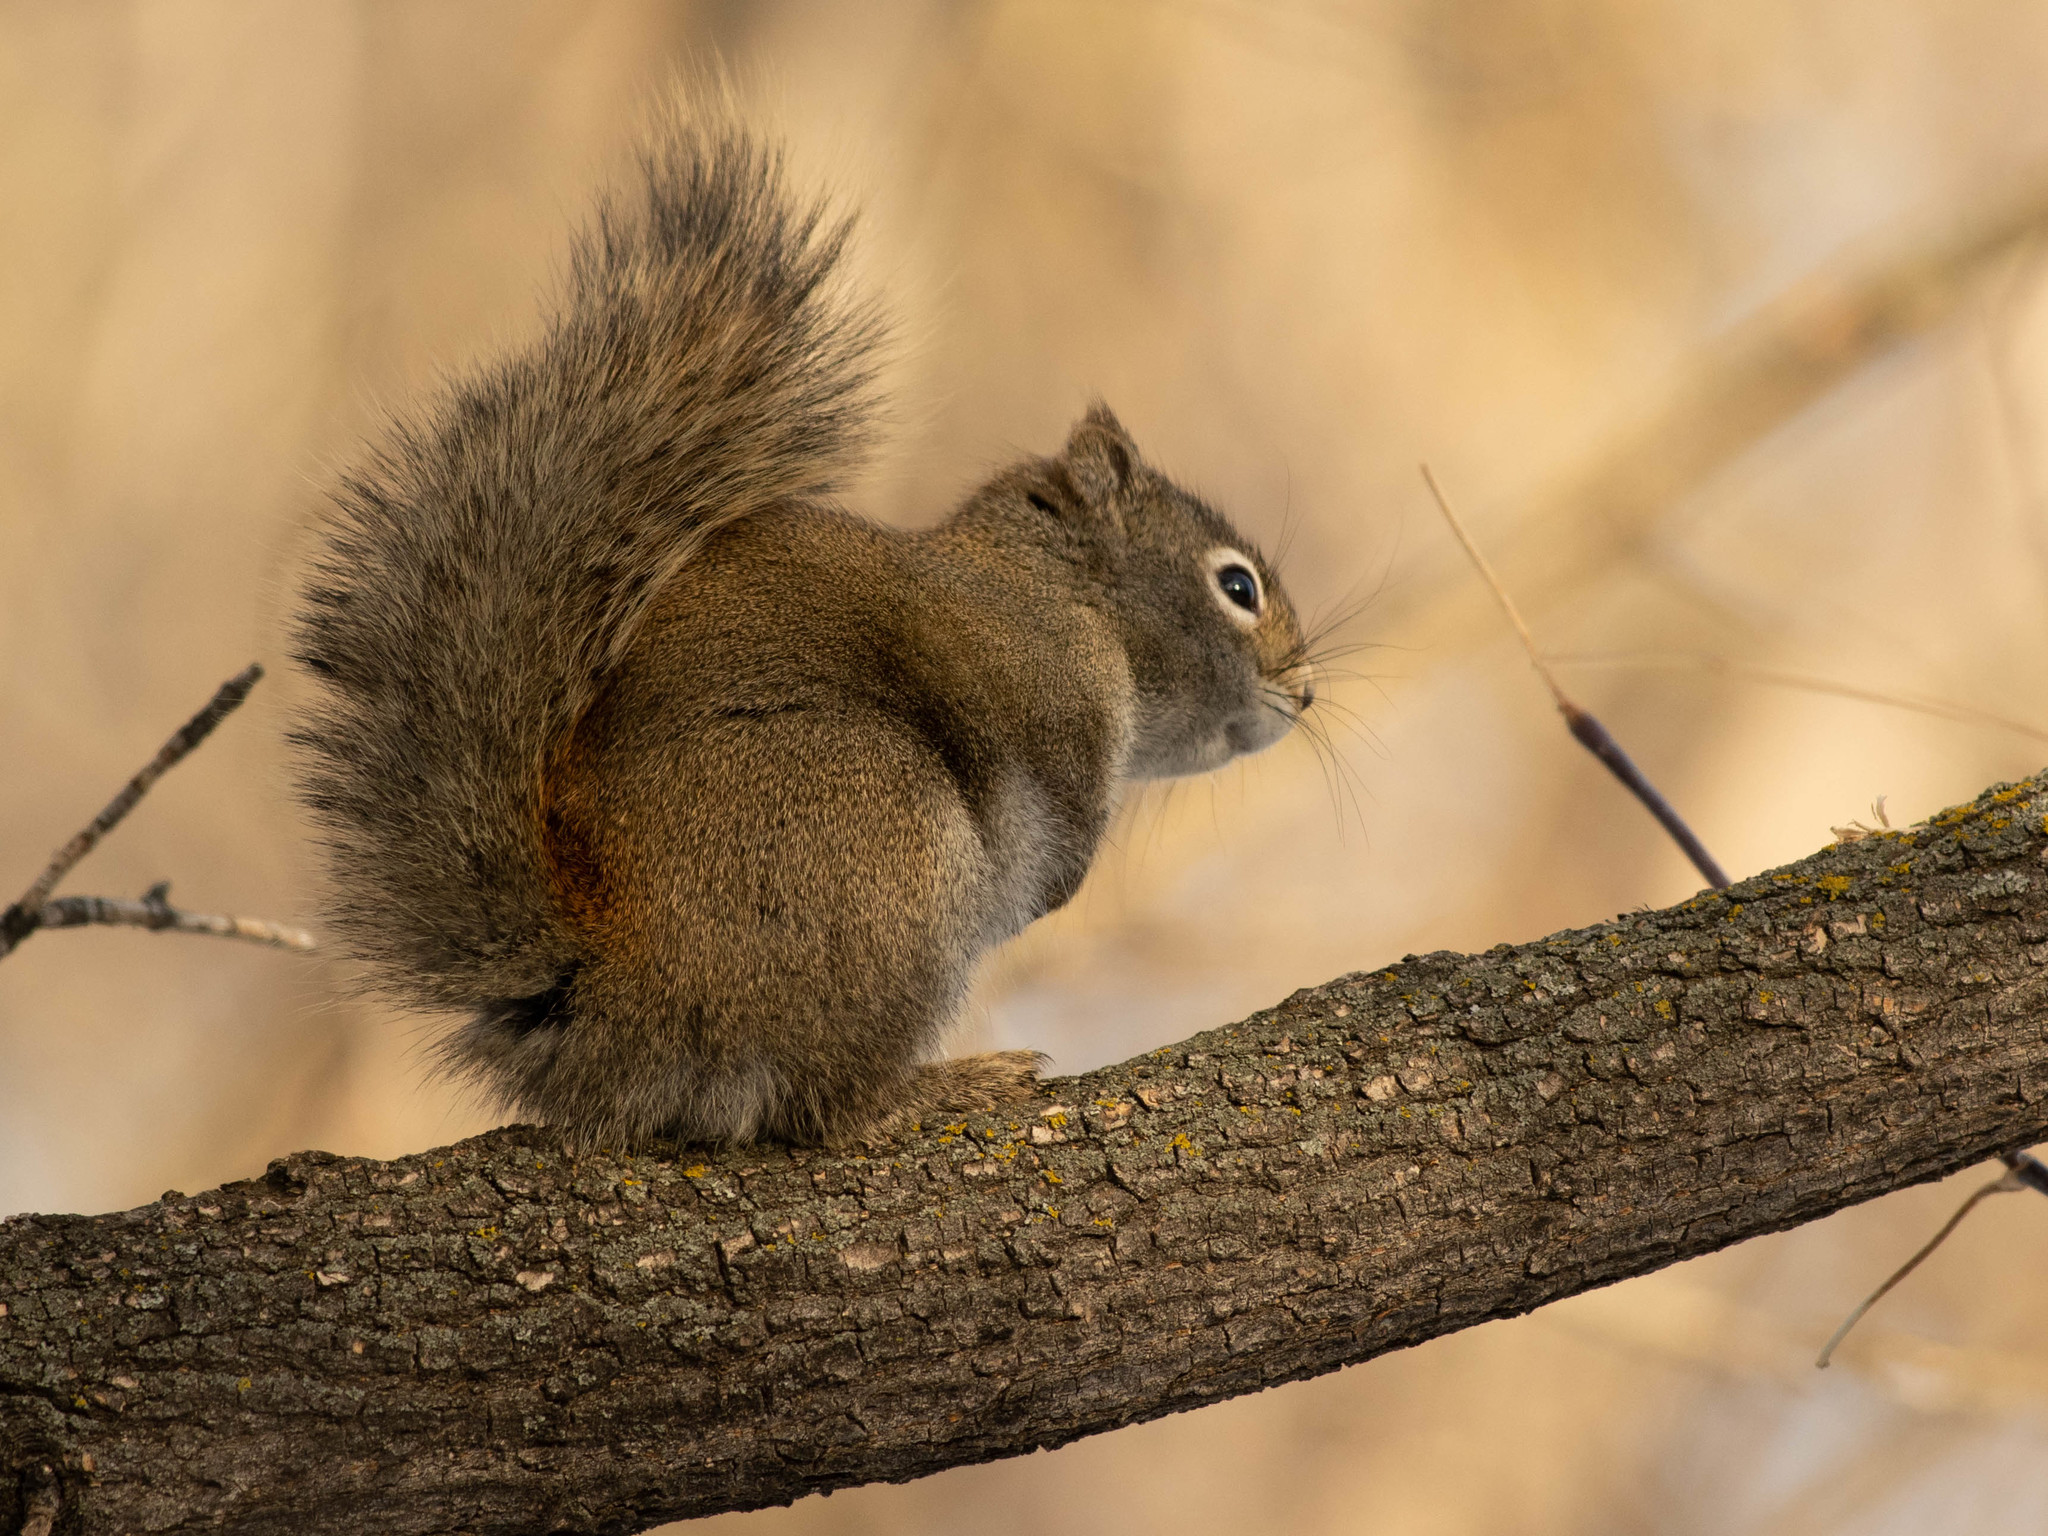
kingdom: Animalia
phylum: Chordata
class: Mammalia
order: Rodentia
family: Sciuridae
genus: Tamiasciurus
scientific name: Tamiasciurus hudsonicus
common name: Red squirrel
